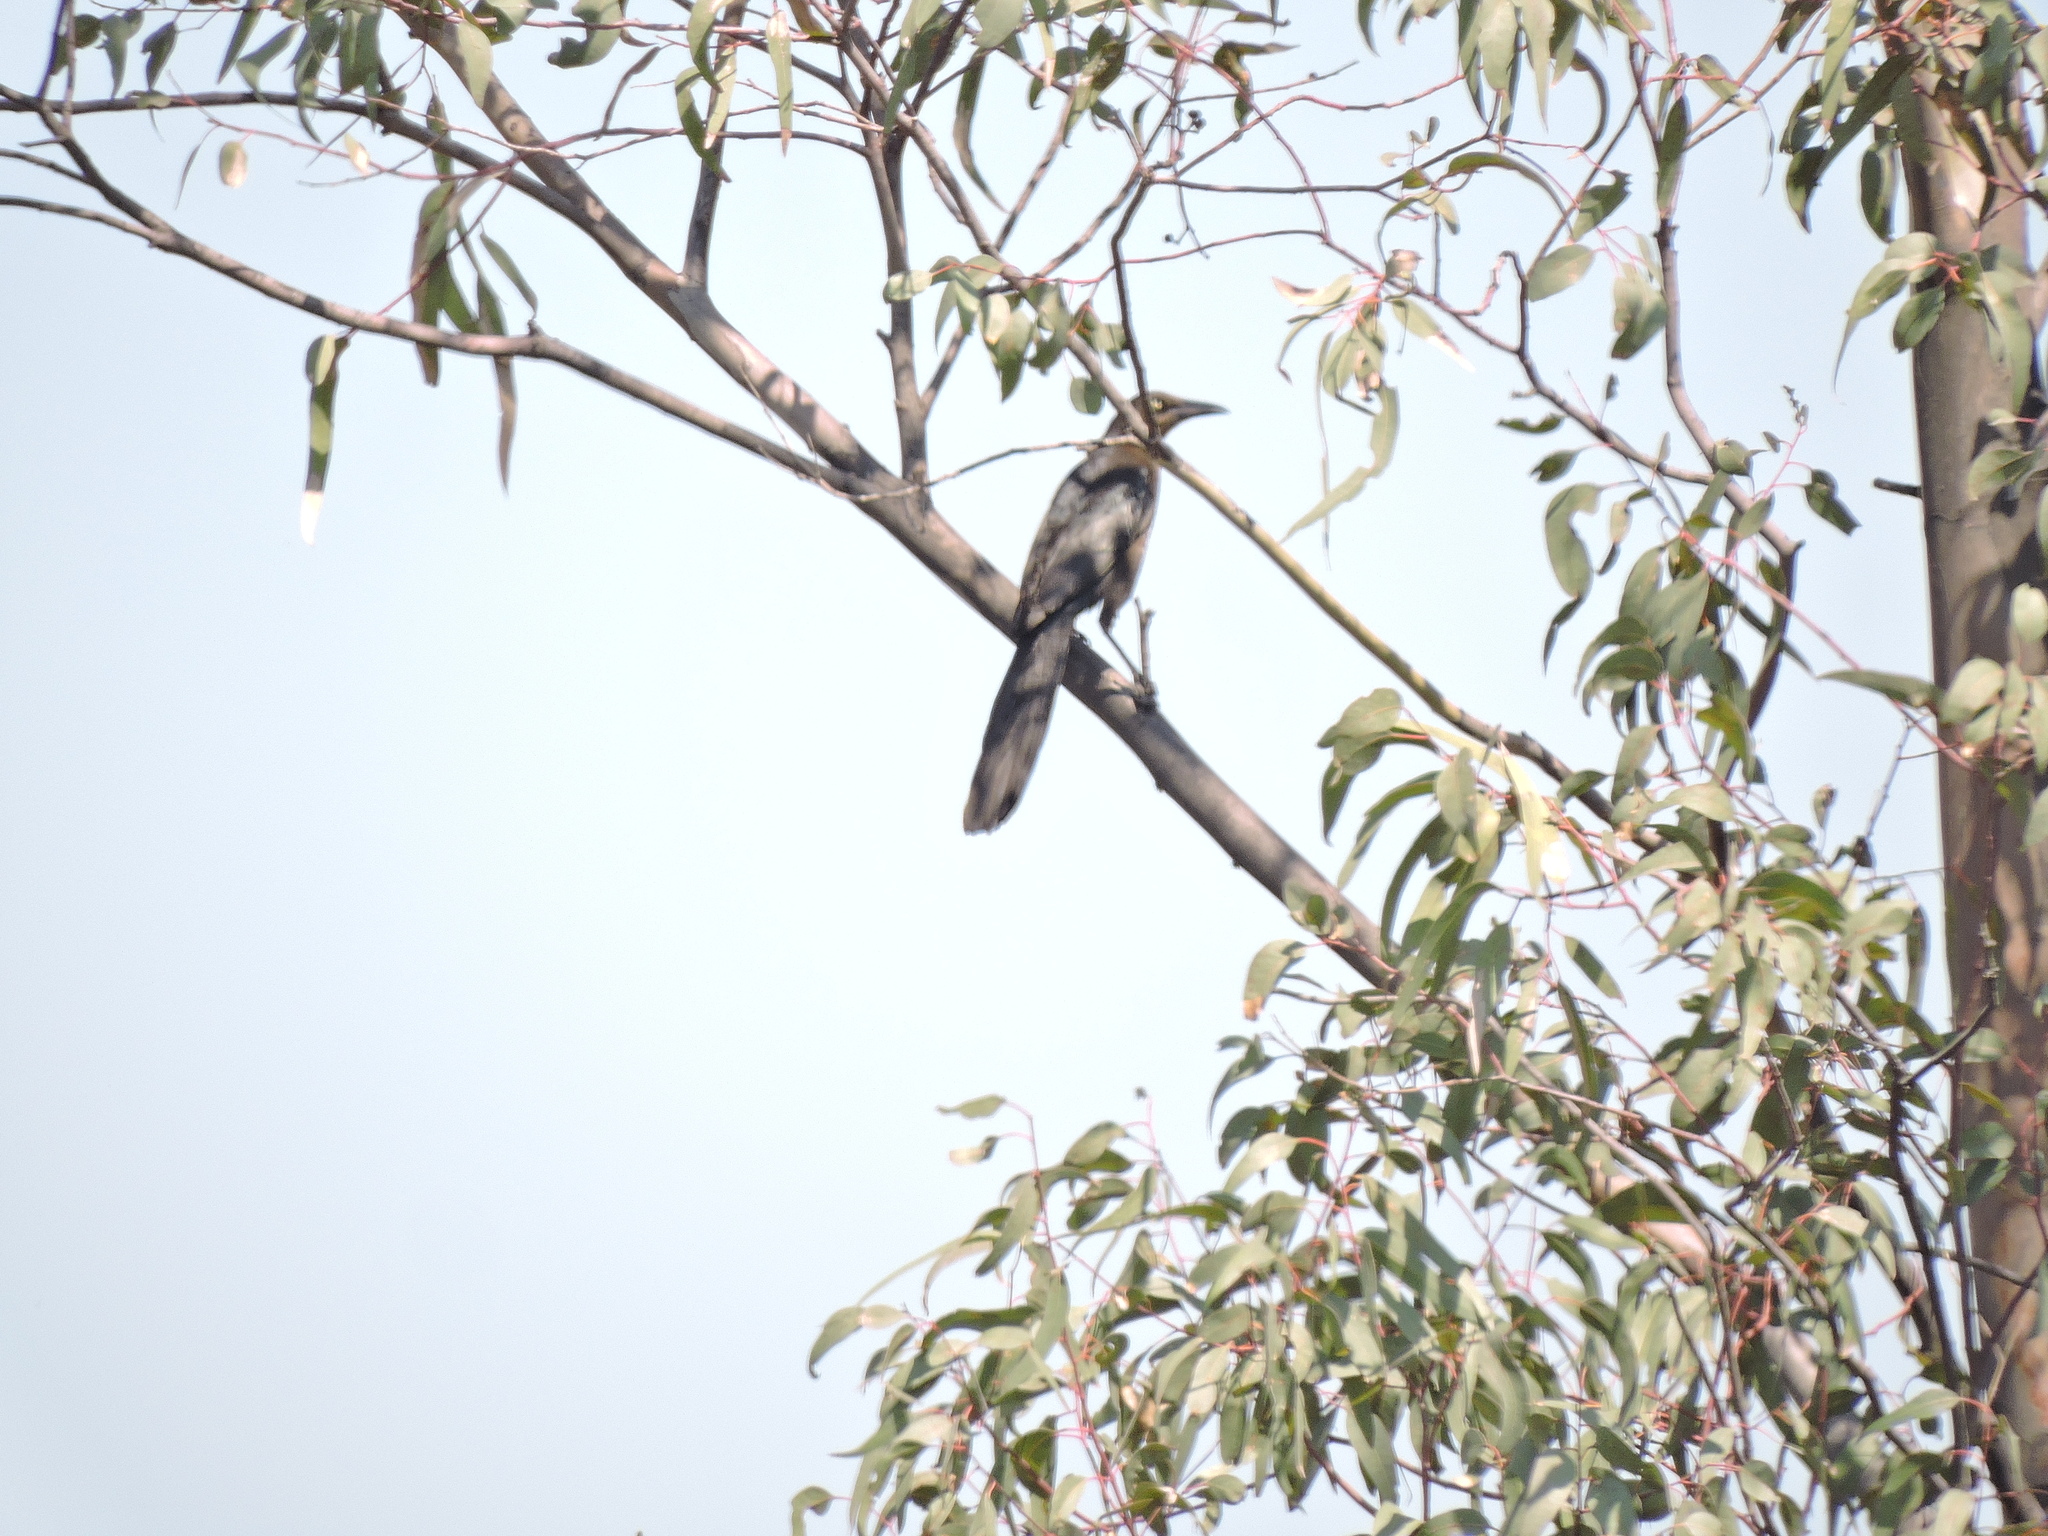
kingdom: Animalia
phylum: Chordata
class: Aves
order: Passeriformes
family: Icteridae
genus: Quiscalus
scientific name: Quiscalus mexicanus
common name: Great-tailed grackle
